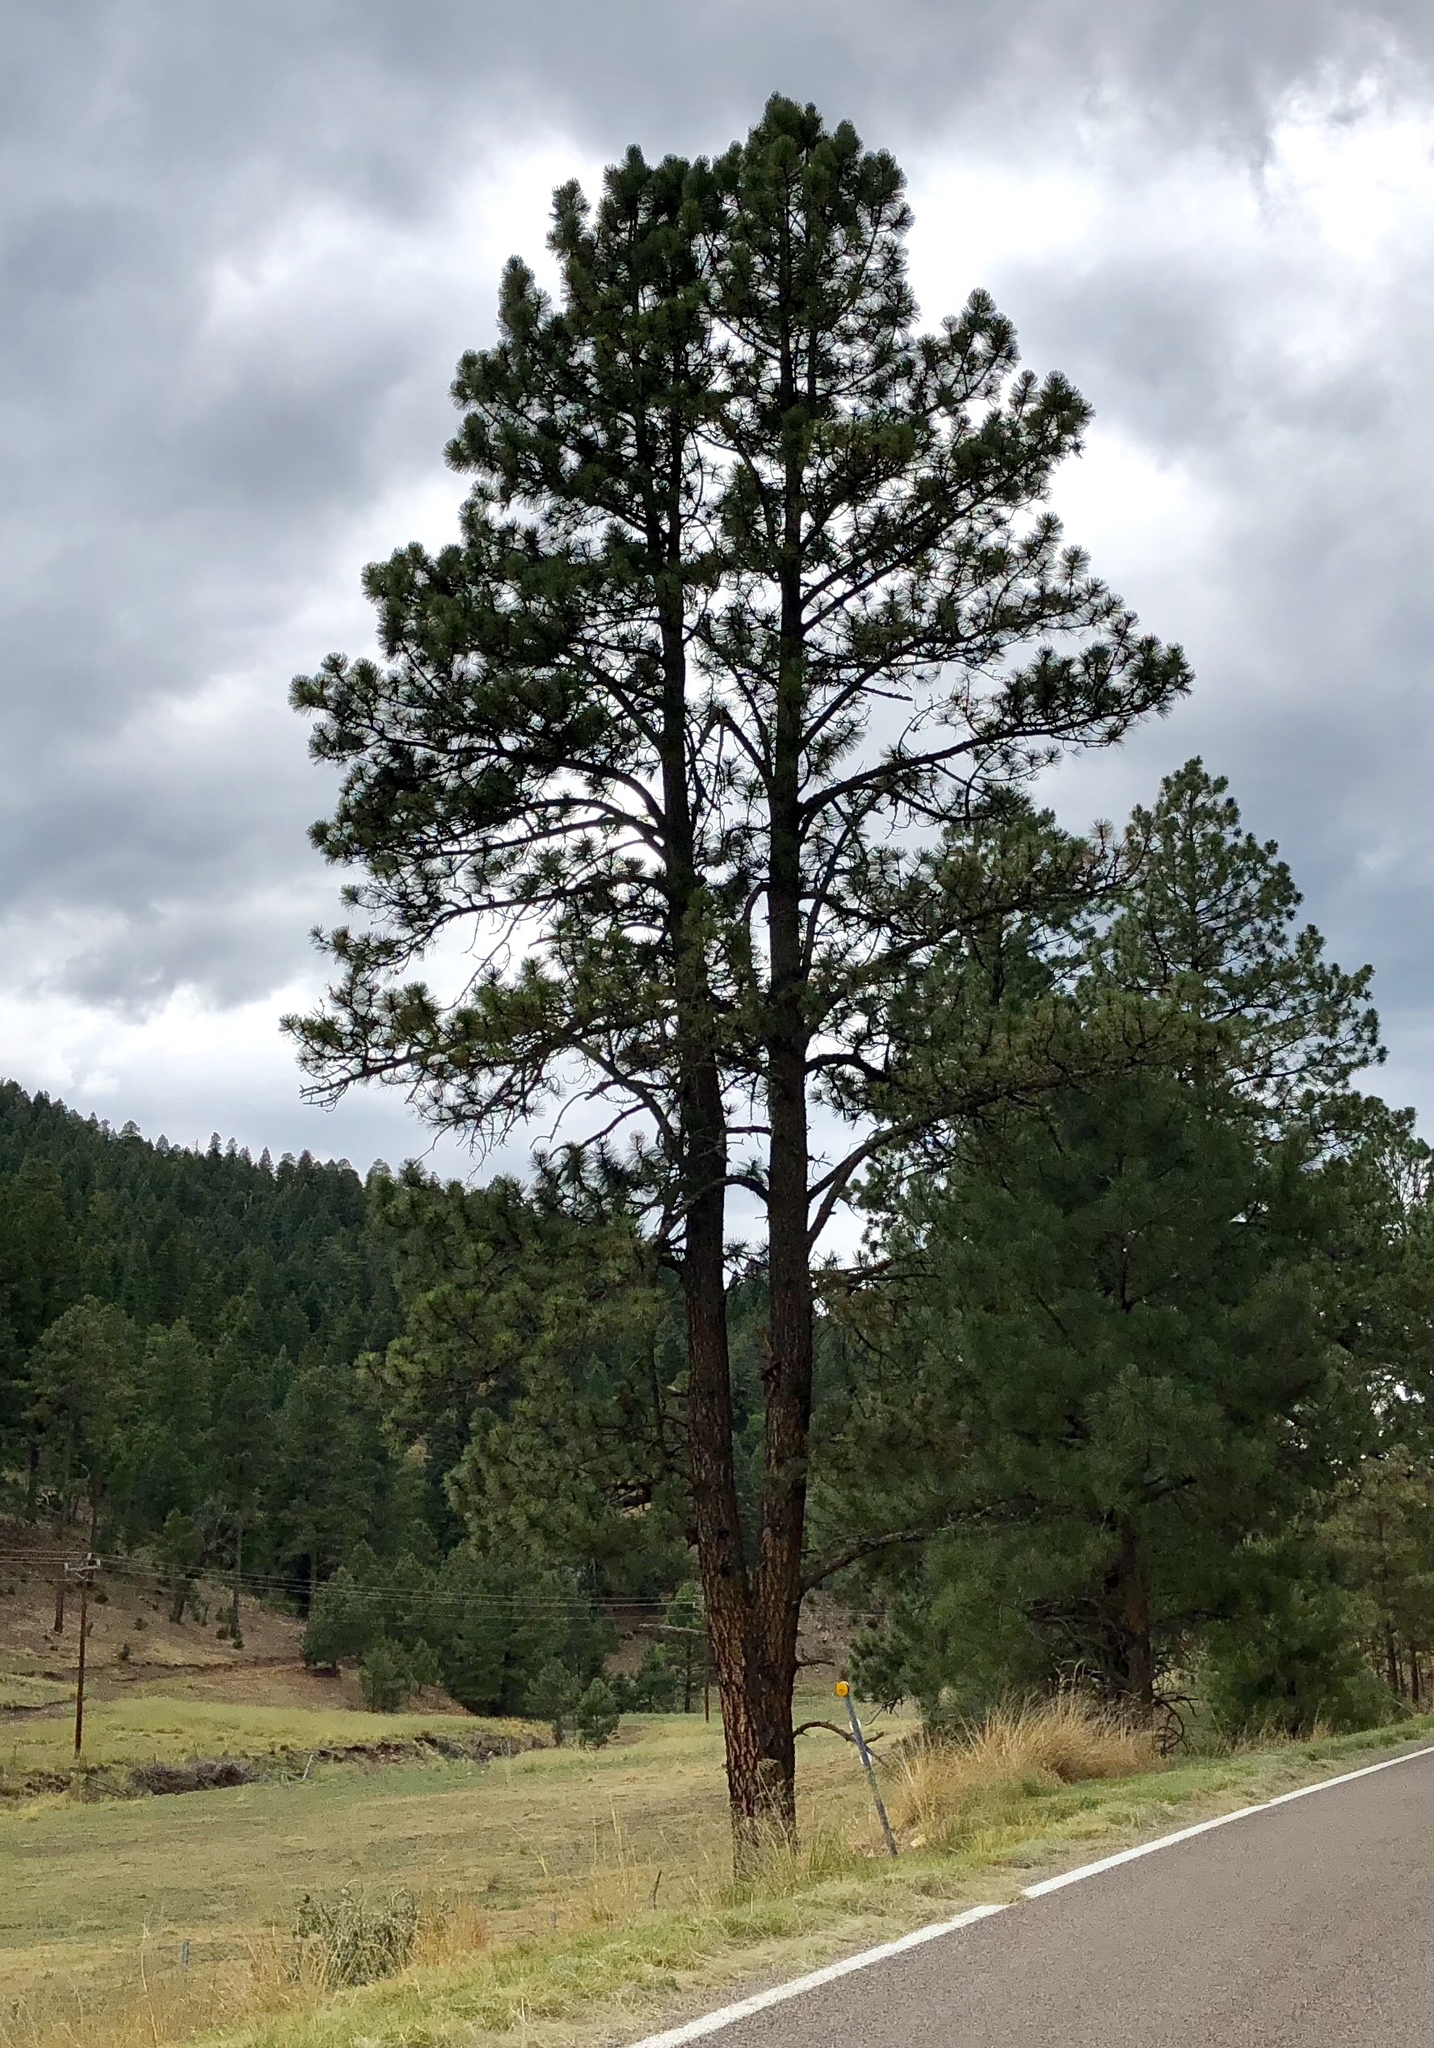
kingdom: Plantae
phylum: Tracheophyta
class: Pinopsida
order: Pinales
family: Pinaceae
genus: Pinus
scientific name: Pinus ponderosa
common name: Western yellow-pine
